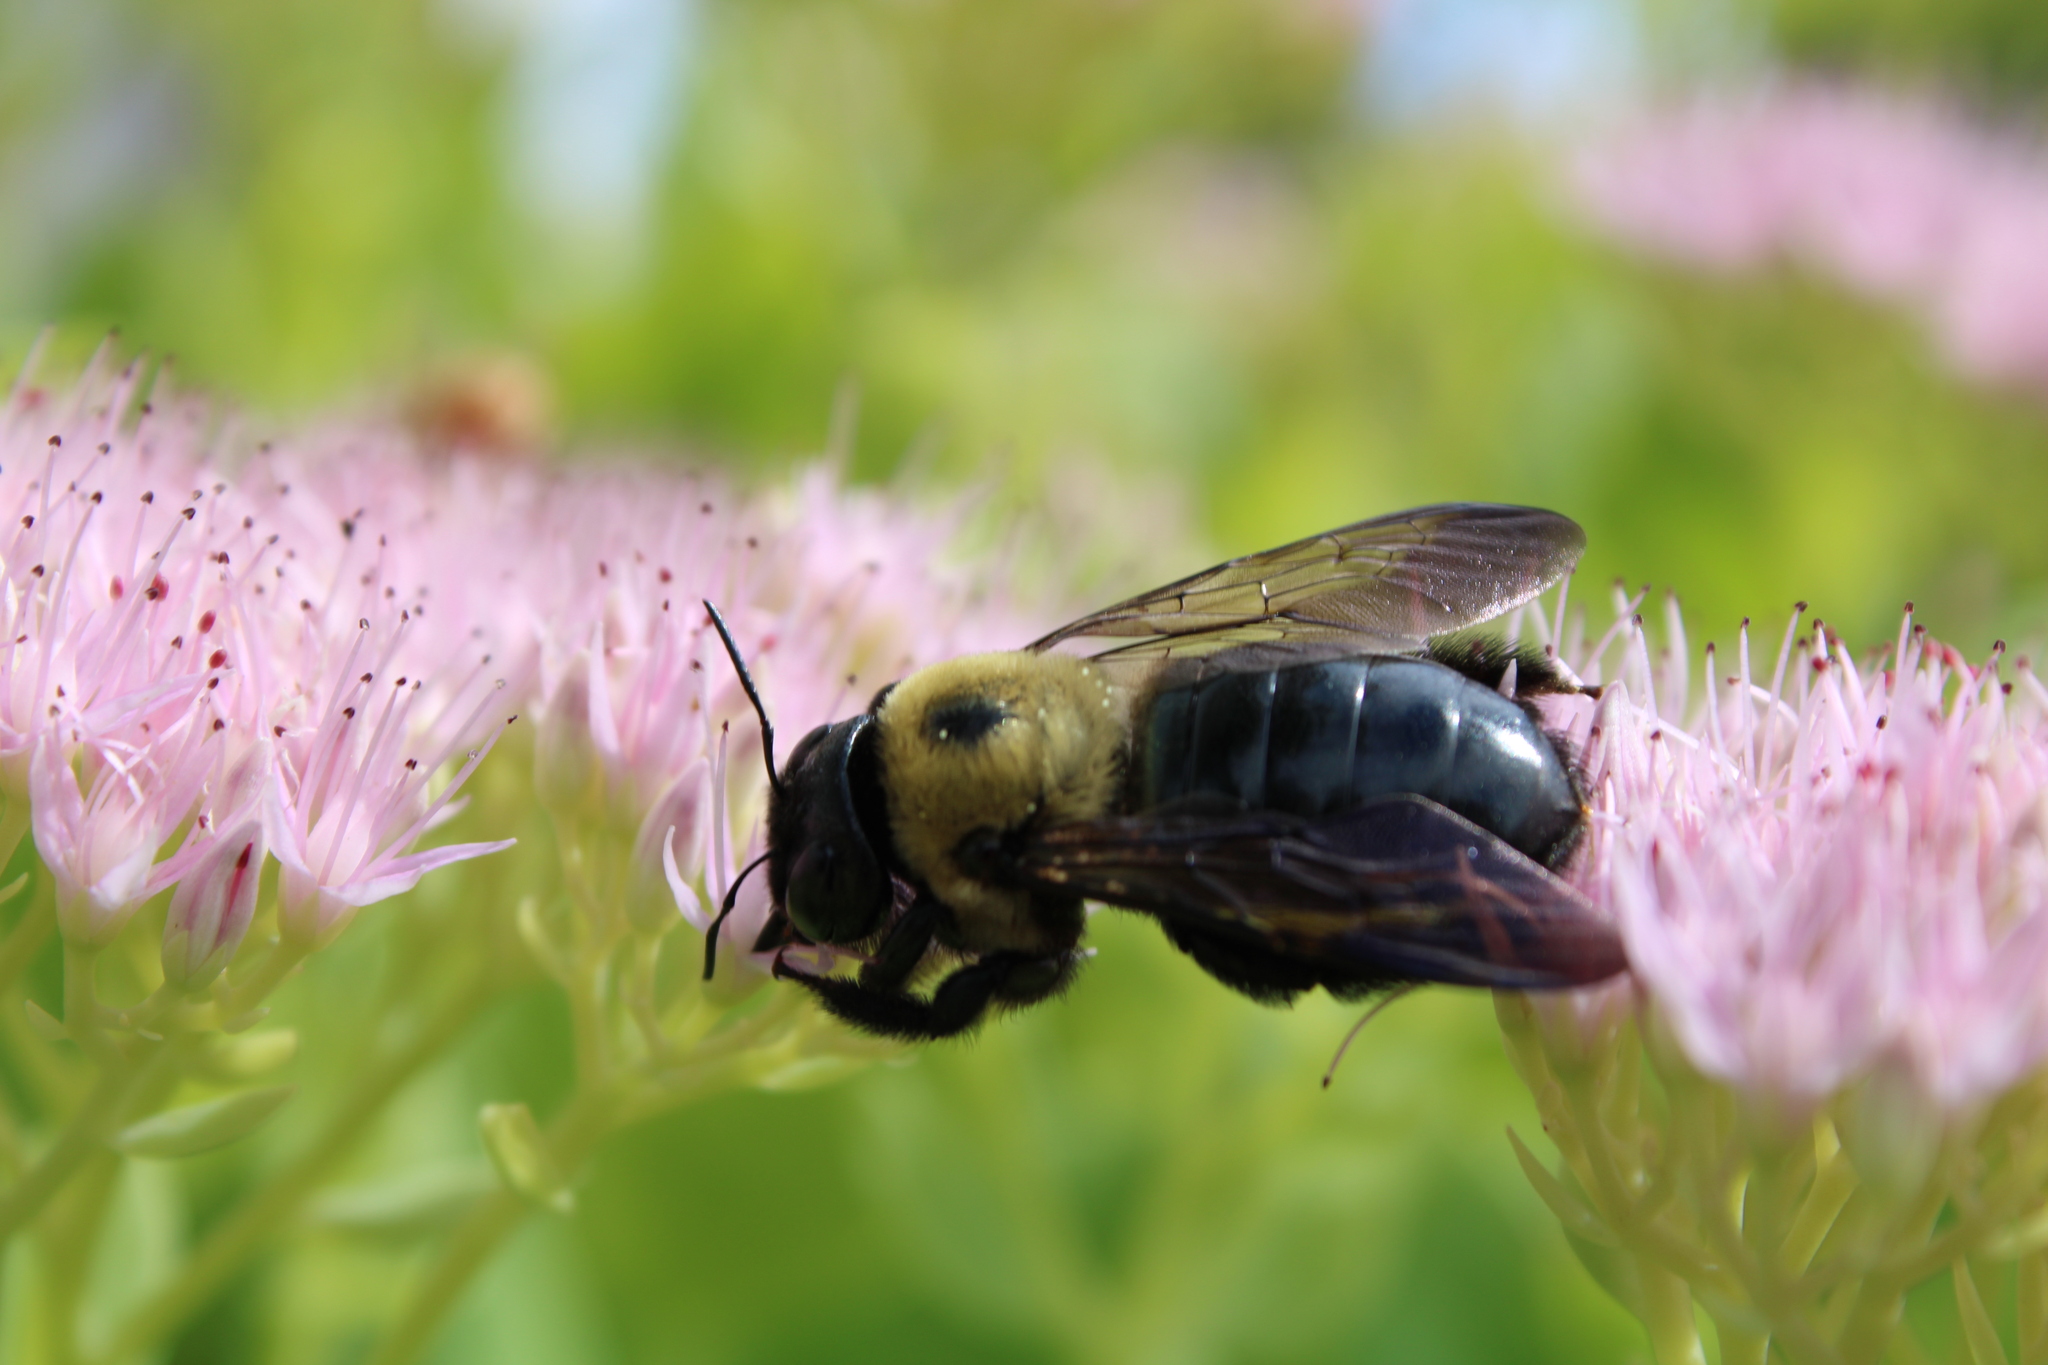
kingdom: Animalia
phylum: Arthropoda
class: Insecta
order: Hymenoptera
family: Apidae
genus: Xylocopa
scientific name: Xylocopa virginica
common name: Carpenter bee
